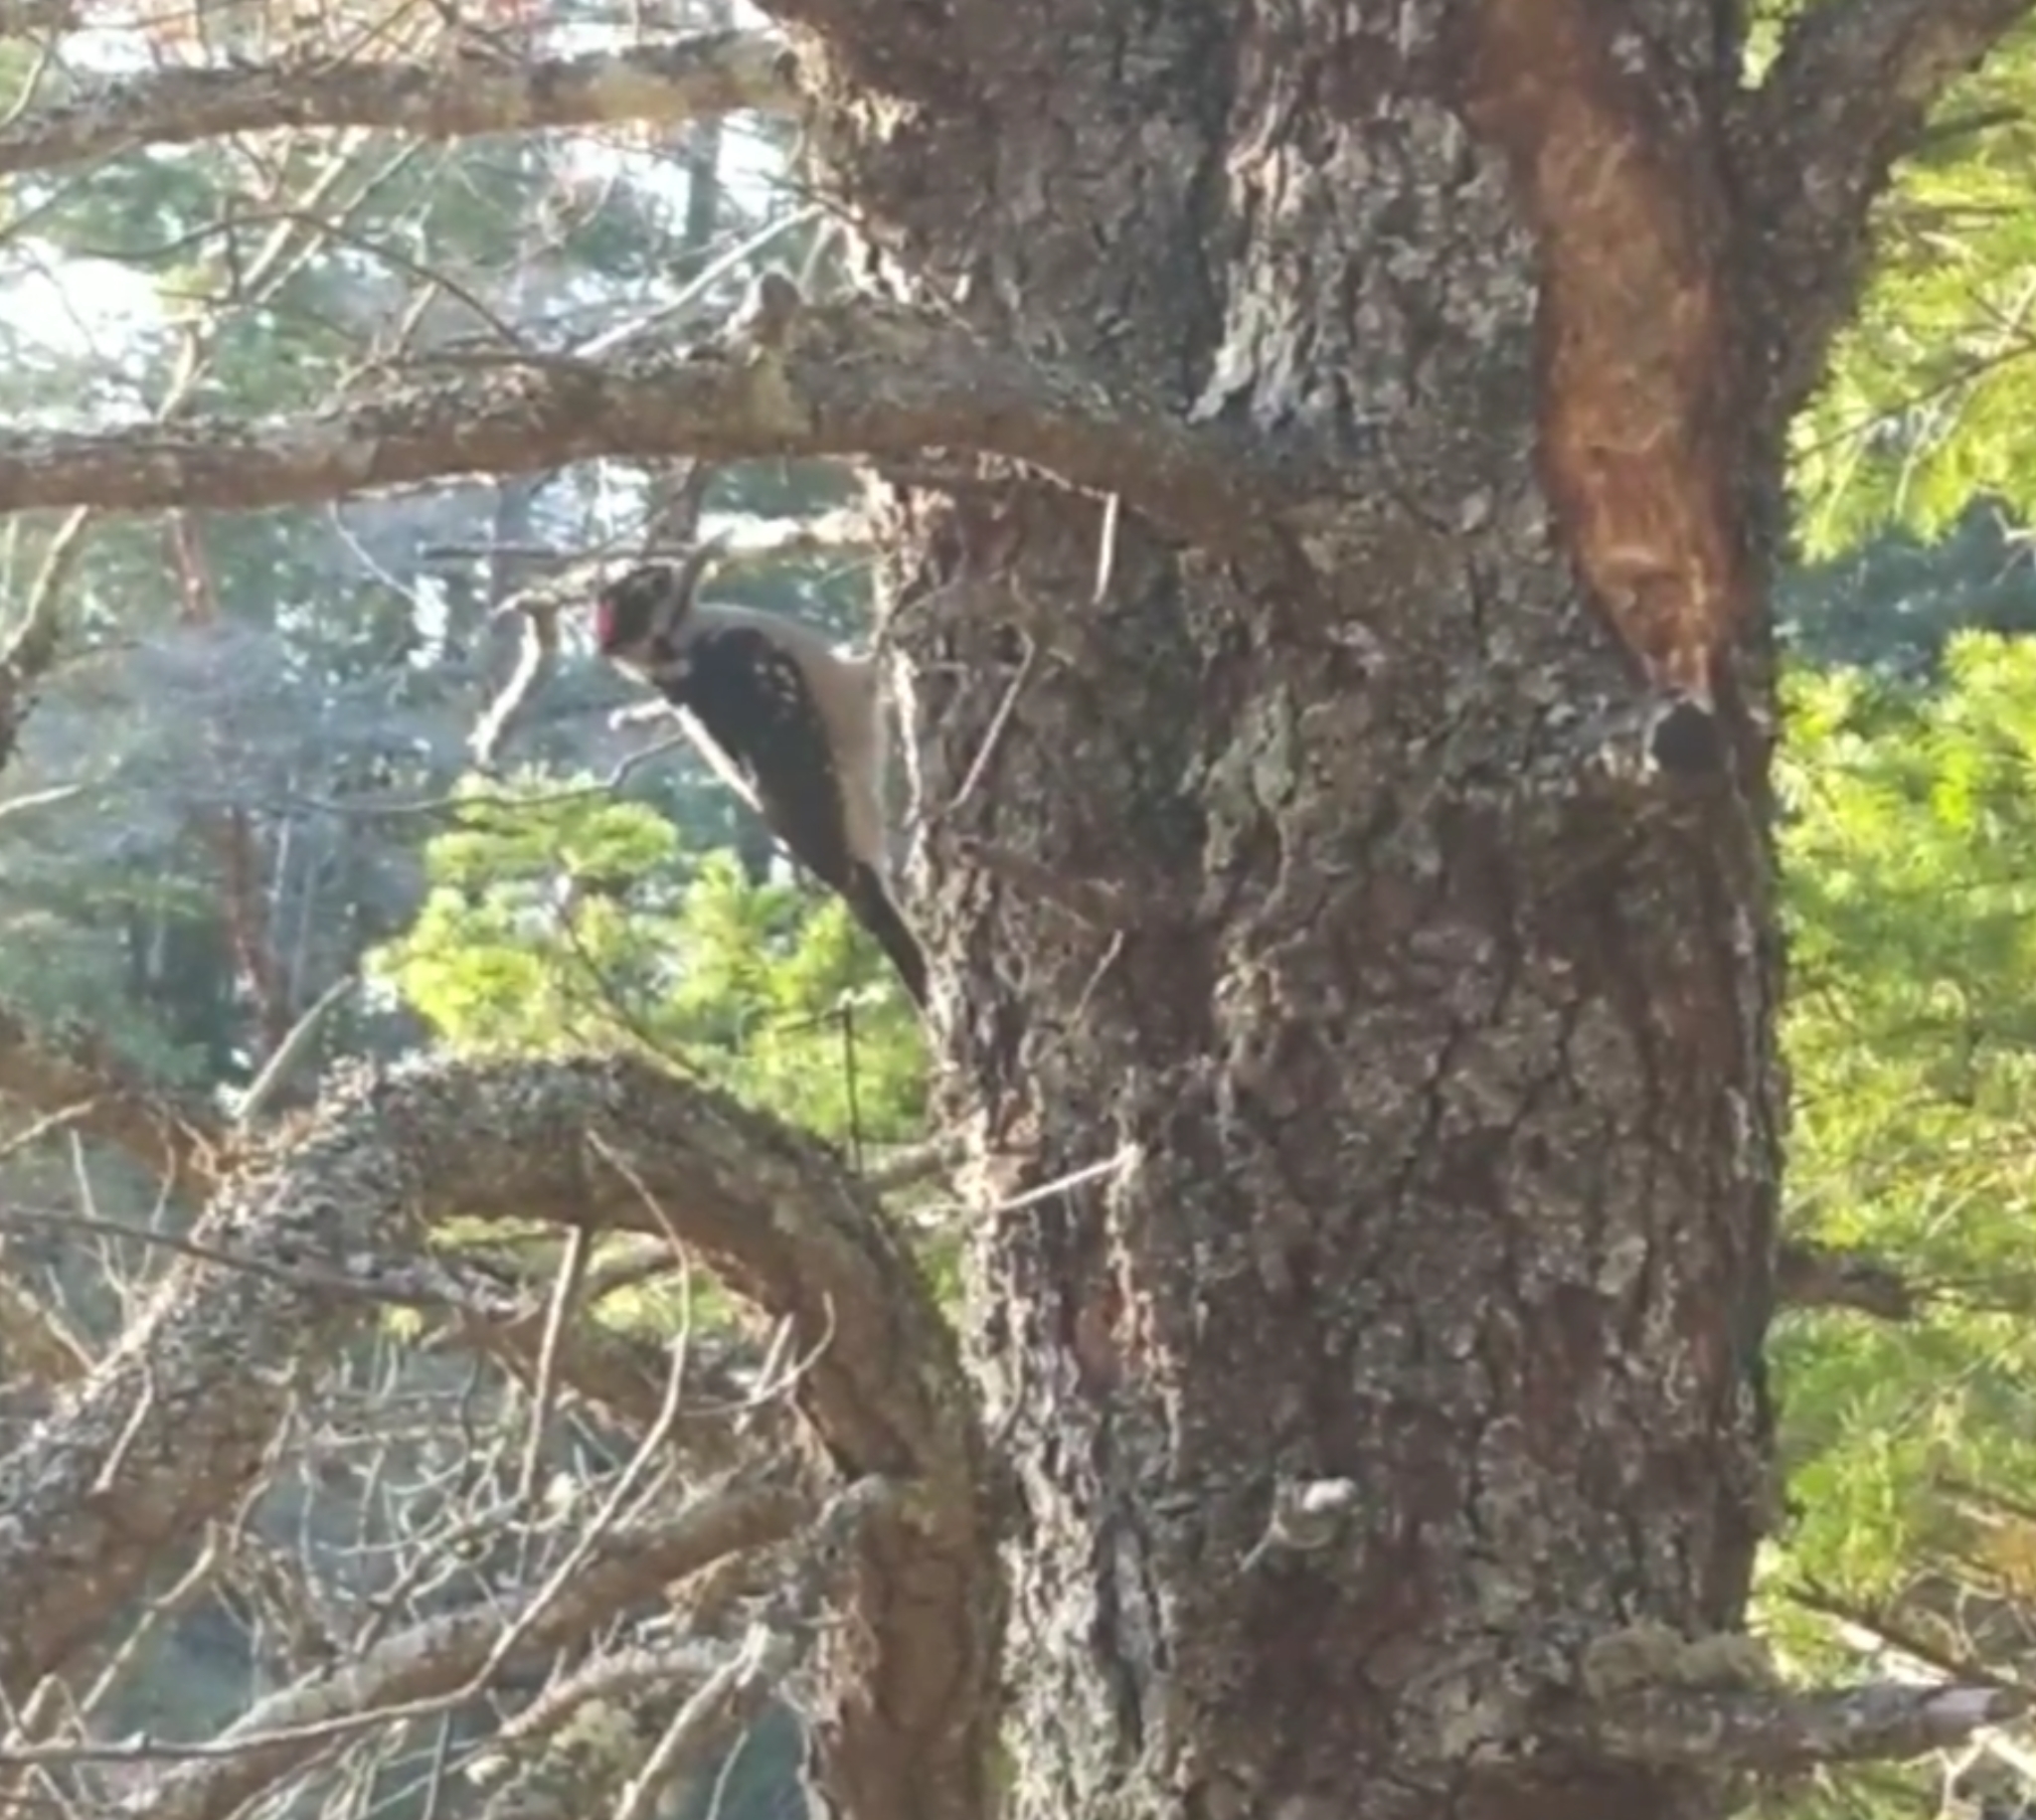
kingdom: Animalia
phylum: Chordata
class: Aves
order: Piciformes
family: Picidae
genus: Leuconotopicus
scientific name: Leuconotopicus villosus
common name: Hairy woodpecker
